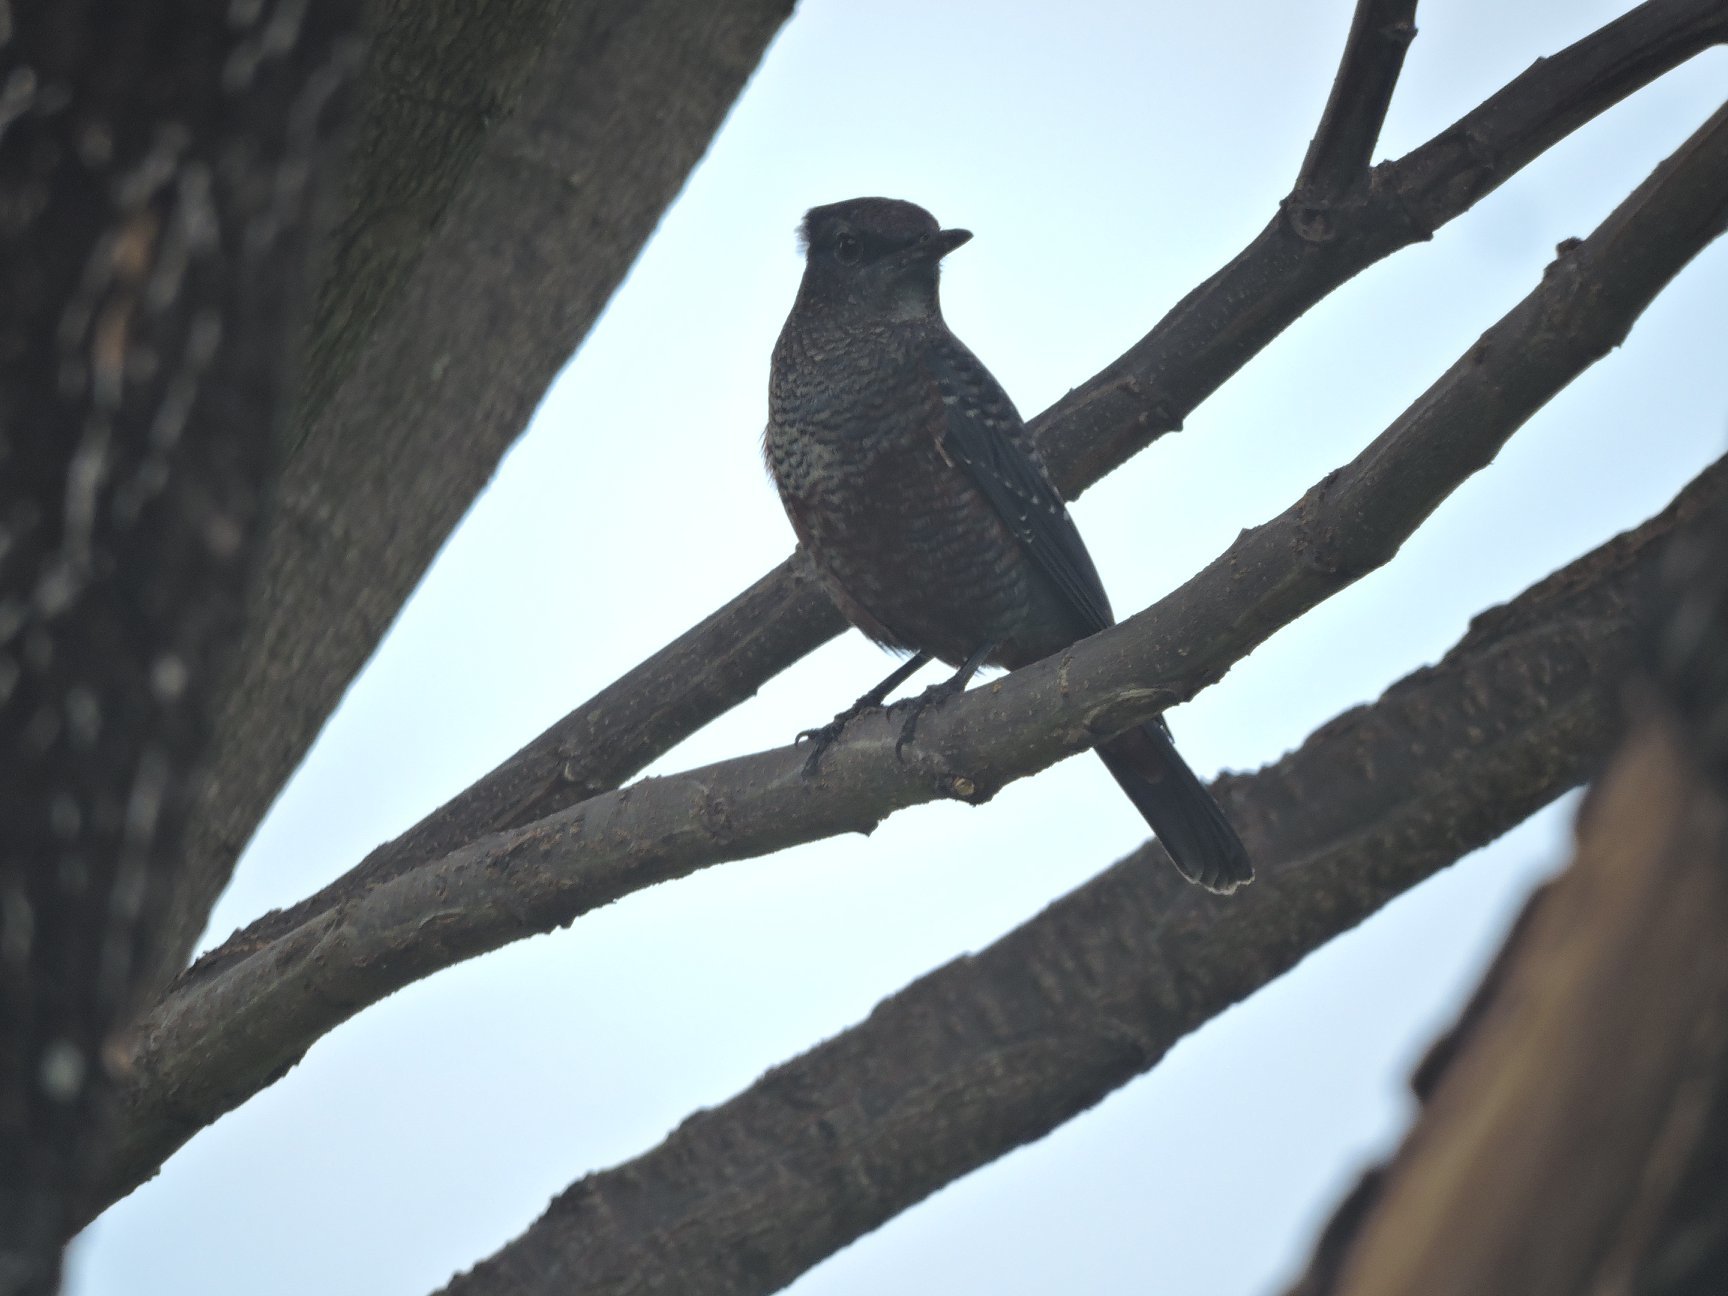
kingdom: Animalia
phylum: Chordata
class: Aves
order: Passeriformes
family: Muscicapidae
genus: Monticola
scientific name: Monticola solitarius
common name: Blue rock thrush
